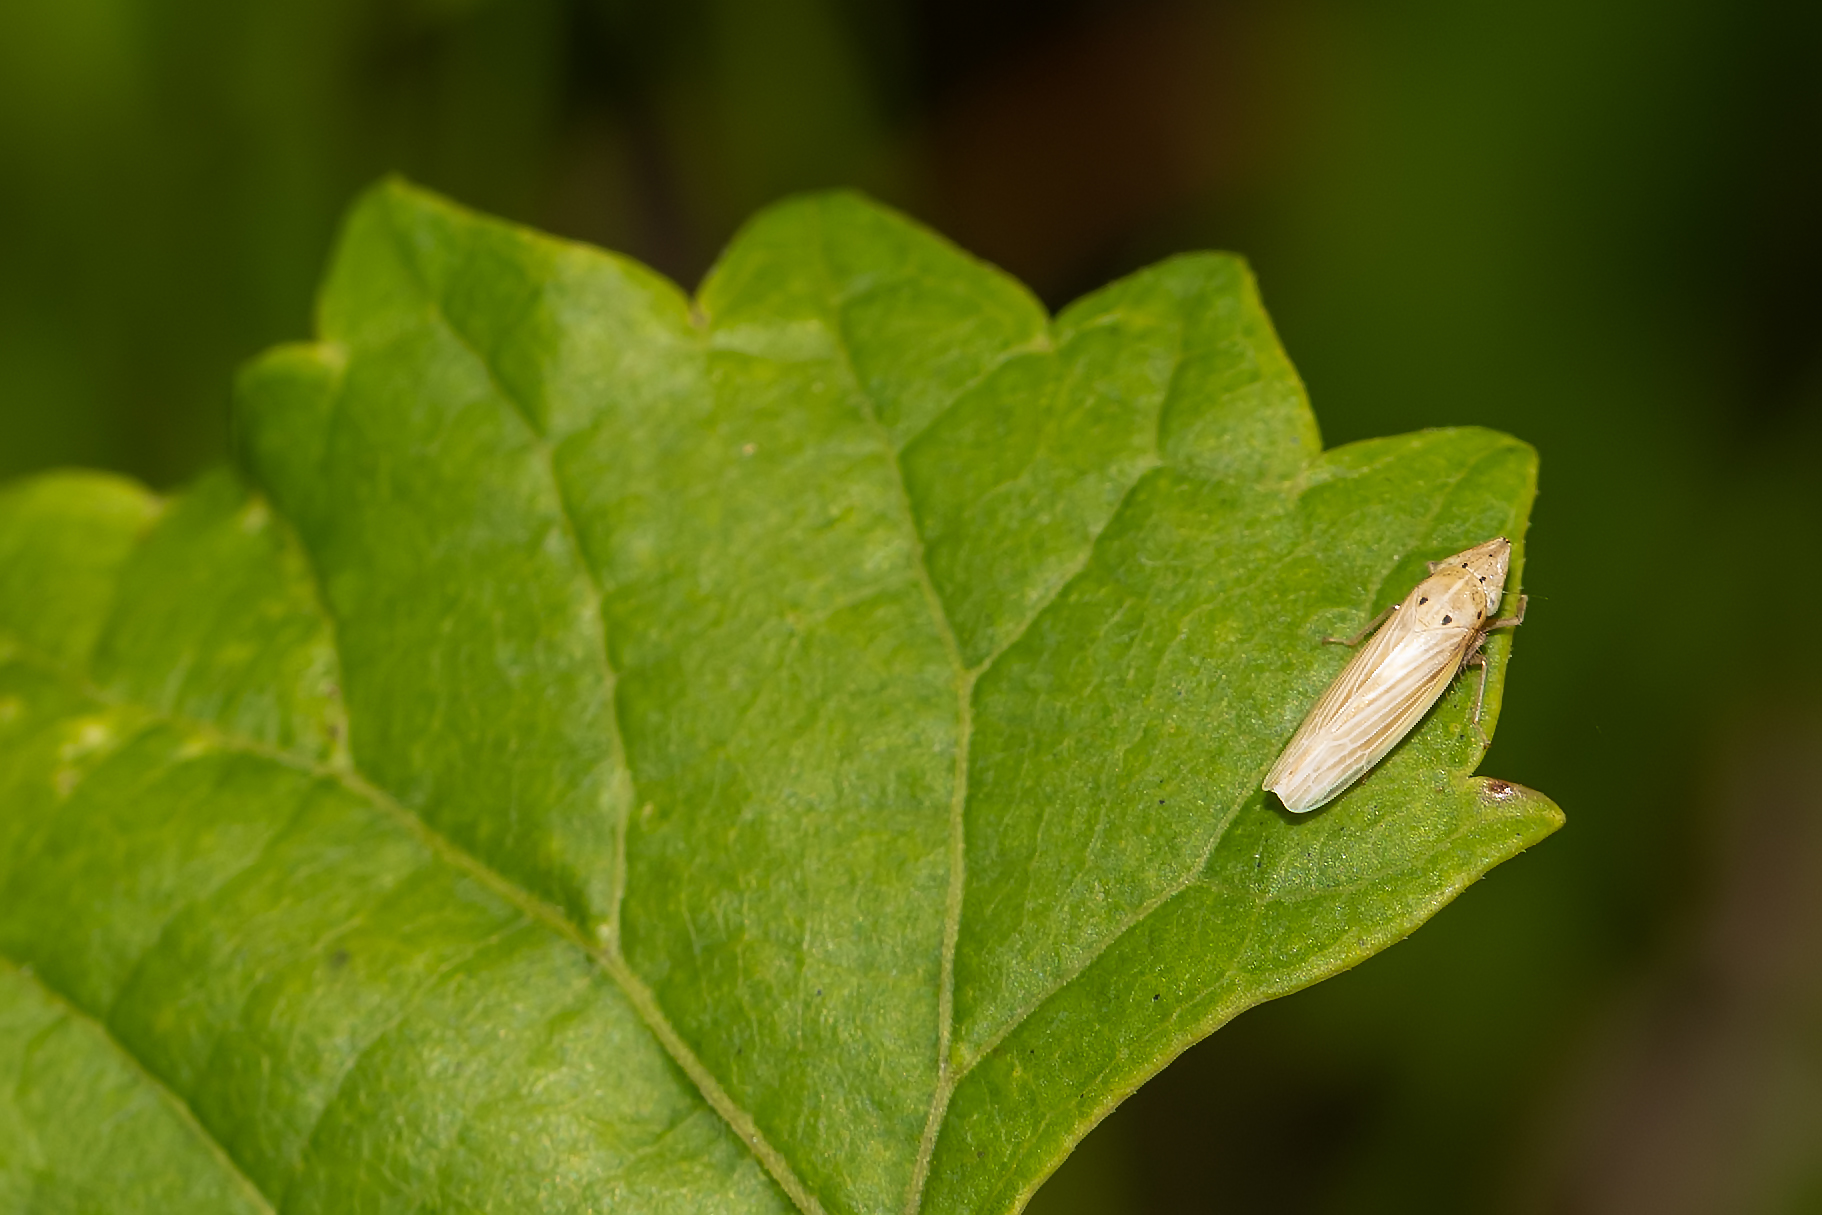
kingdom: Animalia
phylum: Arthropoda
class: Insecta
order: Hemiptera
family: Cicadellidae
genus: Draeculacephala
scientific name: Draeculacephala septemguttata
